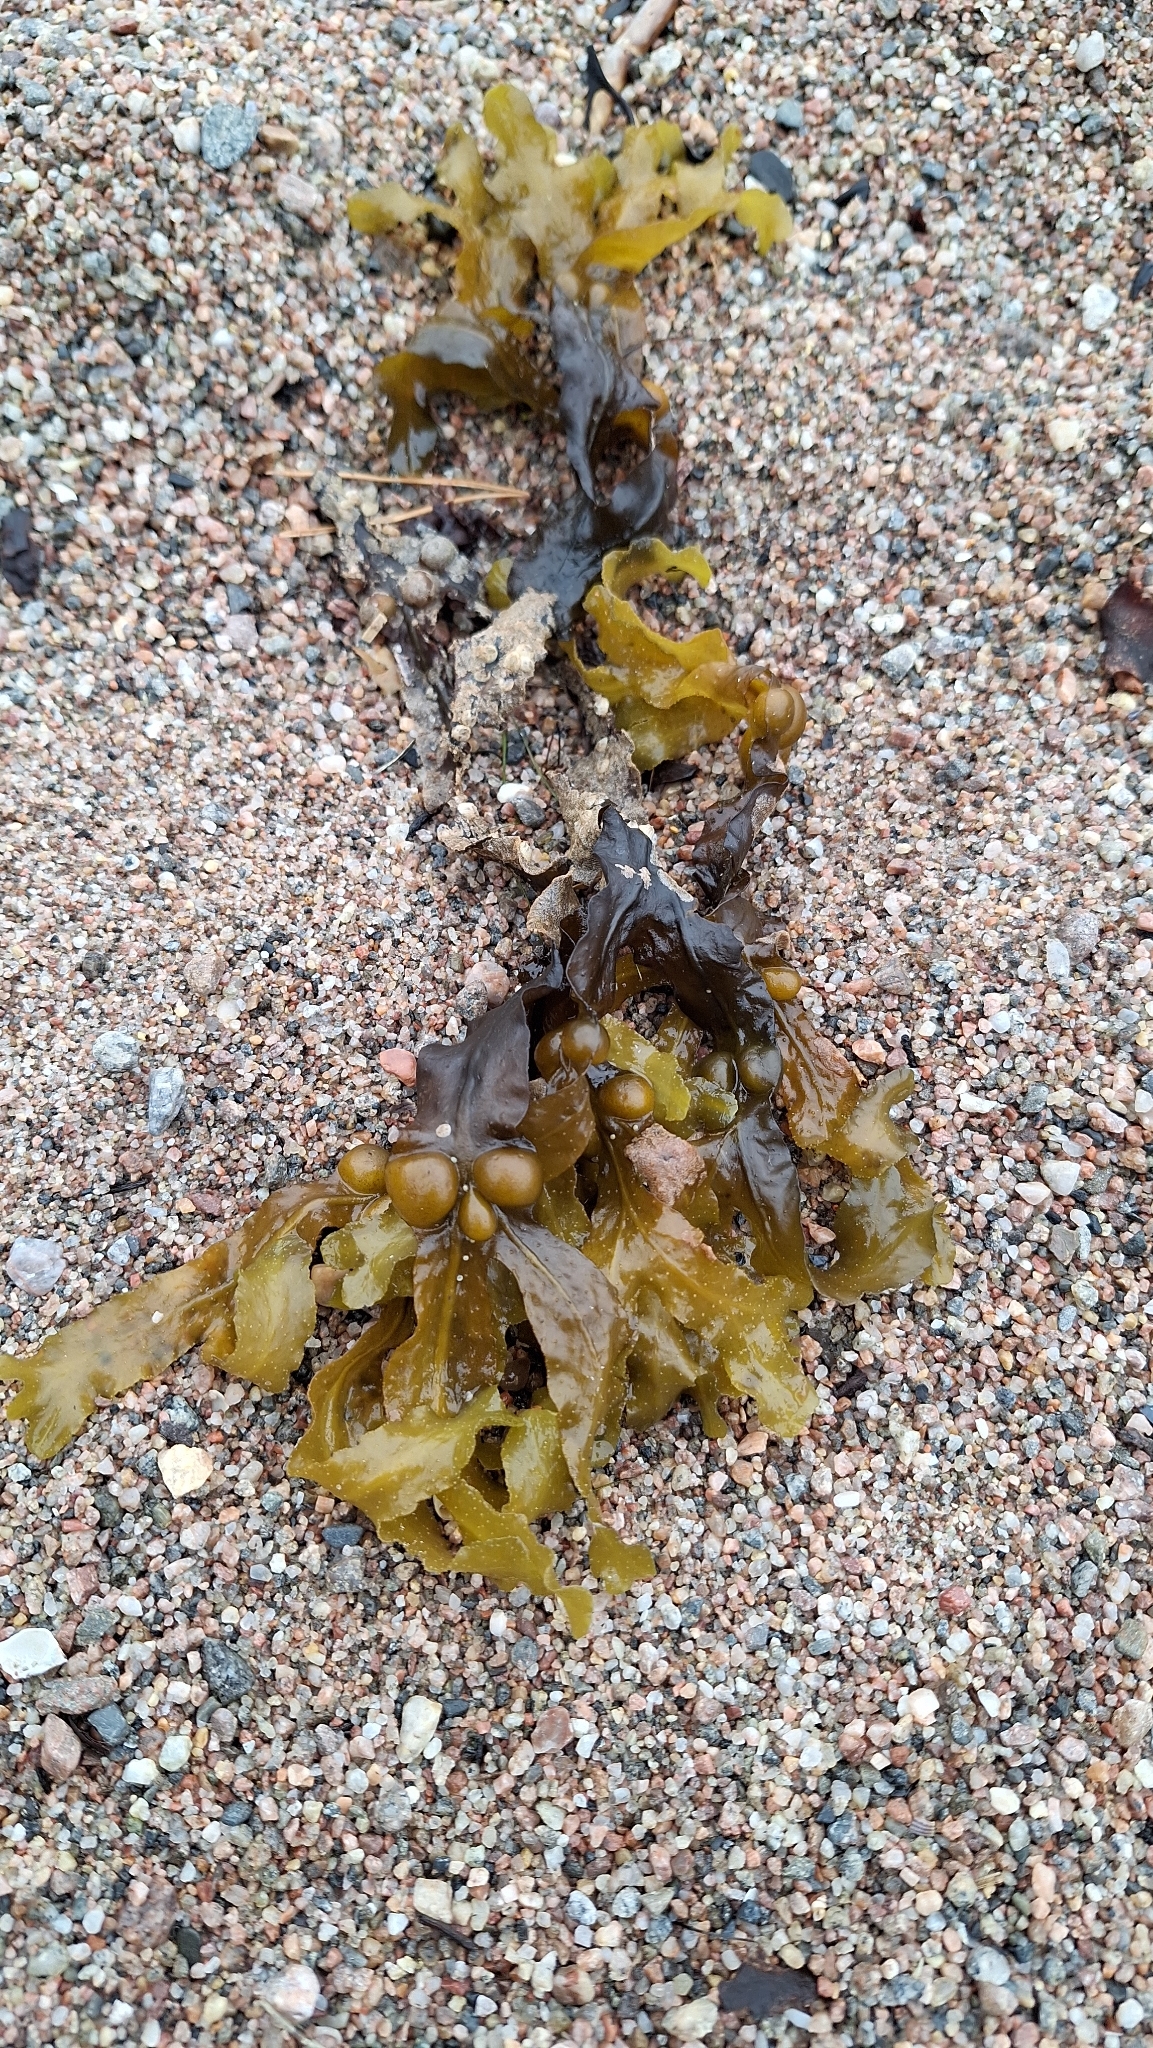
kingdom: Chromista
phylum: Ochrophyta
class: Phaeophyceae
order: Fucales
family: Fucaceae
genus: Fucus
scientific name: Fucus vesiculosus
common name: Bladder wrack
